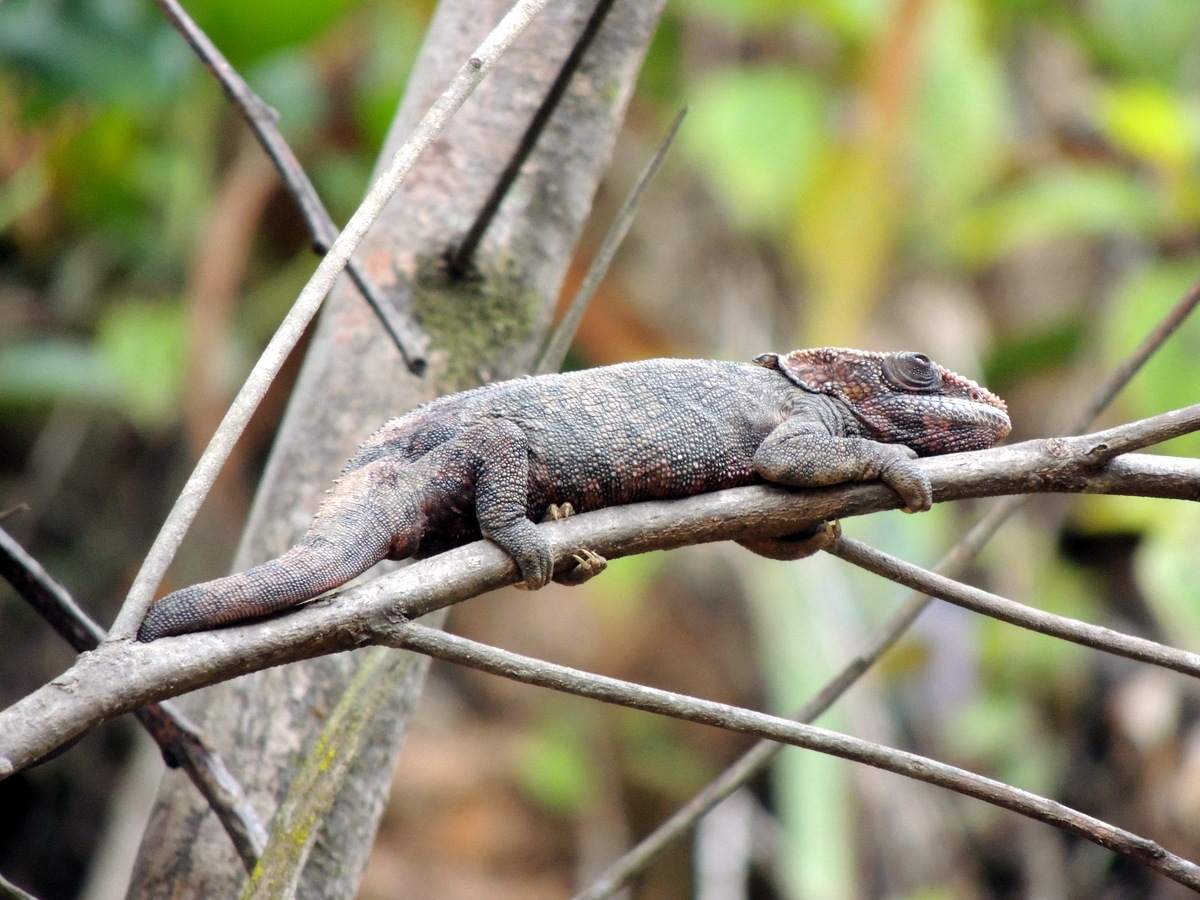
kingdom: Animalia
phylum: Chordata
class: Squamata
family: Chamaeleonidae
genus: Calumma
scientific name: Calumma brevicorne
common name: Short-horned chameleon
